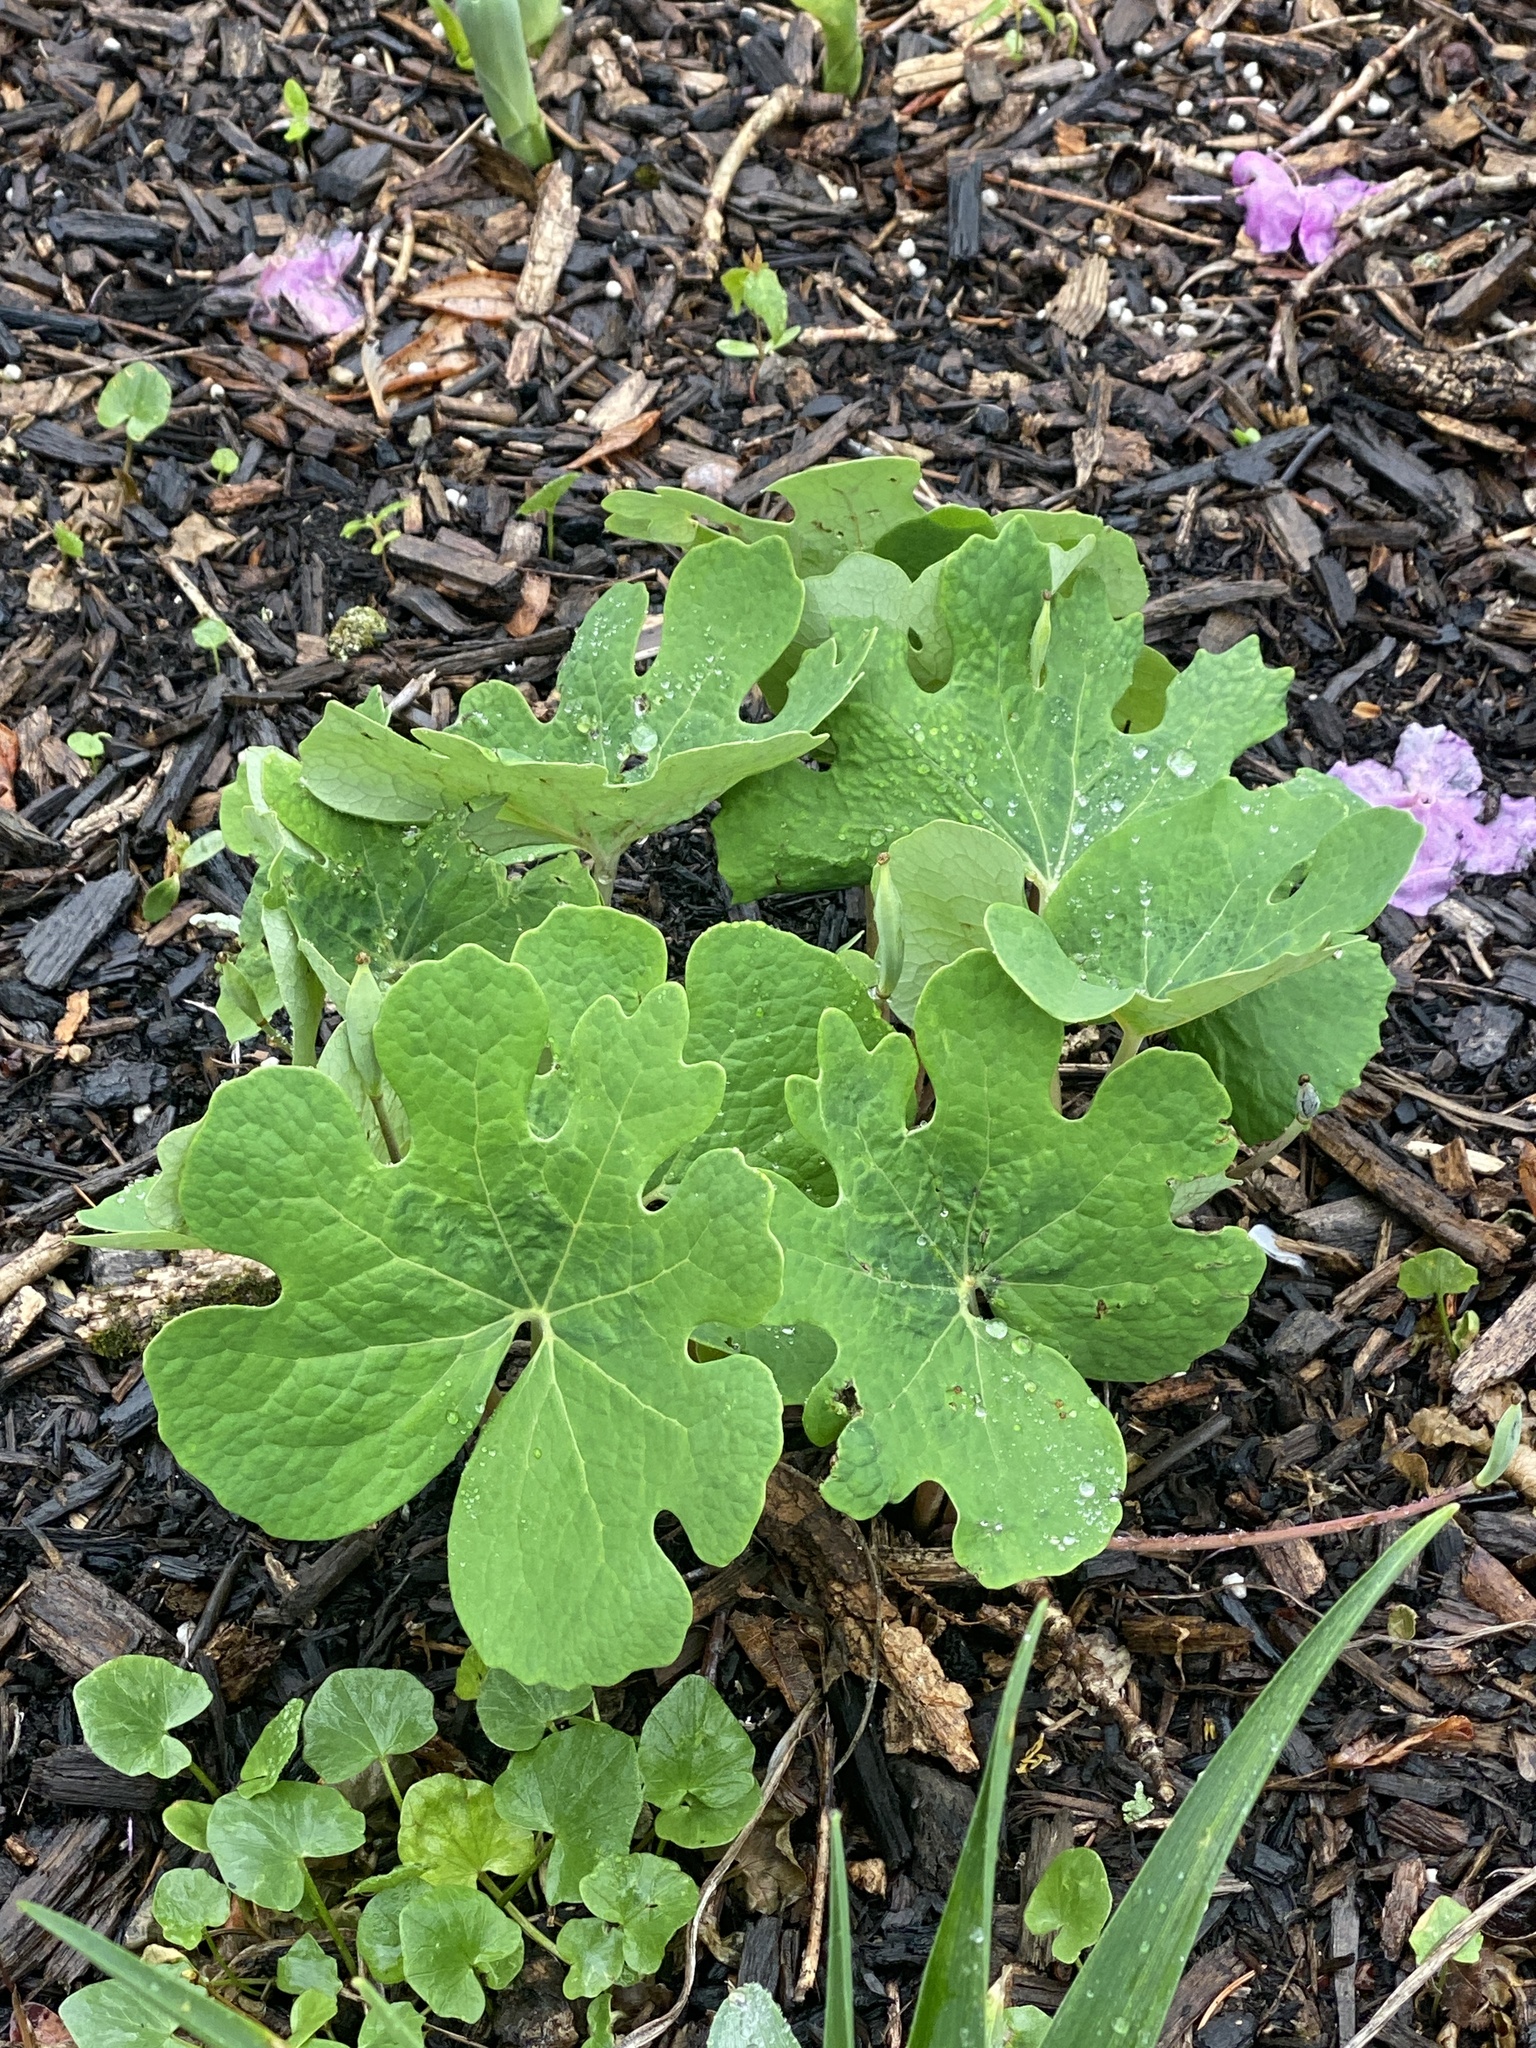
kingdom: Plantae
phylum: Tracheophyta
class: Magnoliopsida
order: Ranunculales
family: Papaveraceae
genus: Sanguinaria
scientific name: Sanguinaria canadensis
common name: Bloodroot
